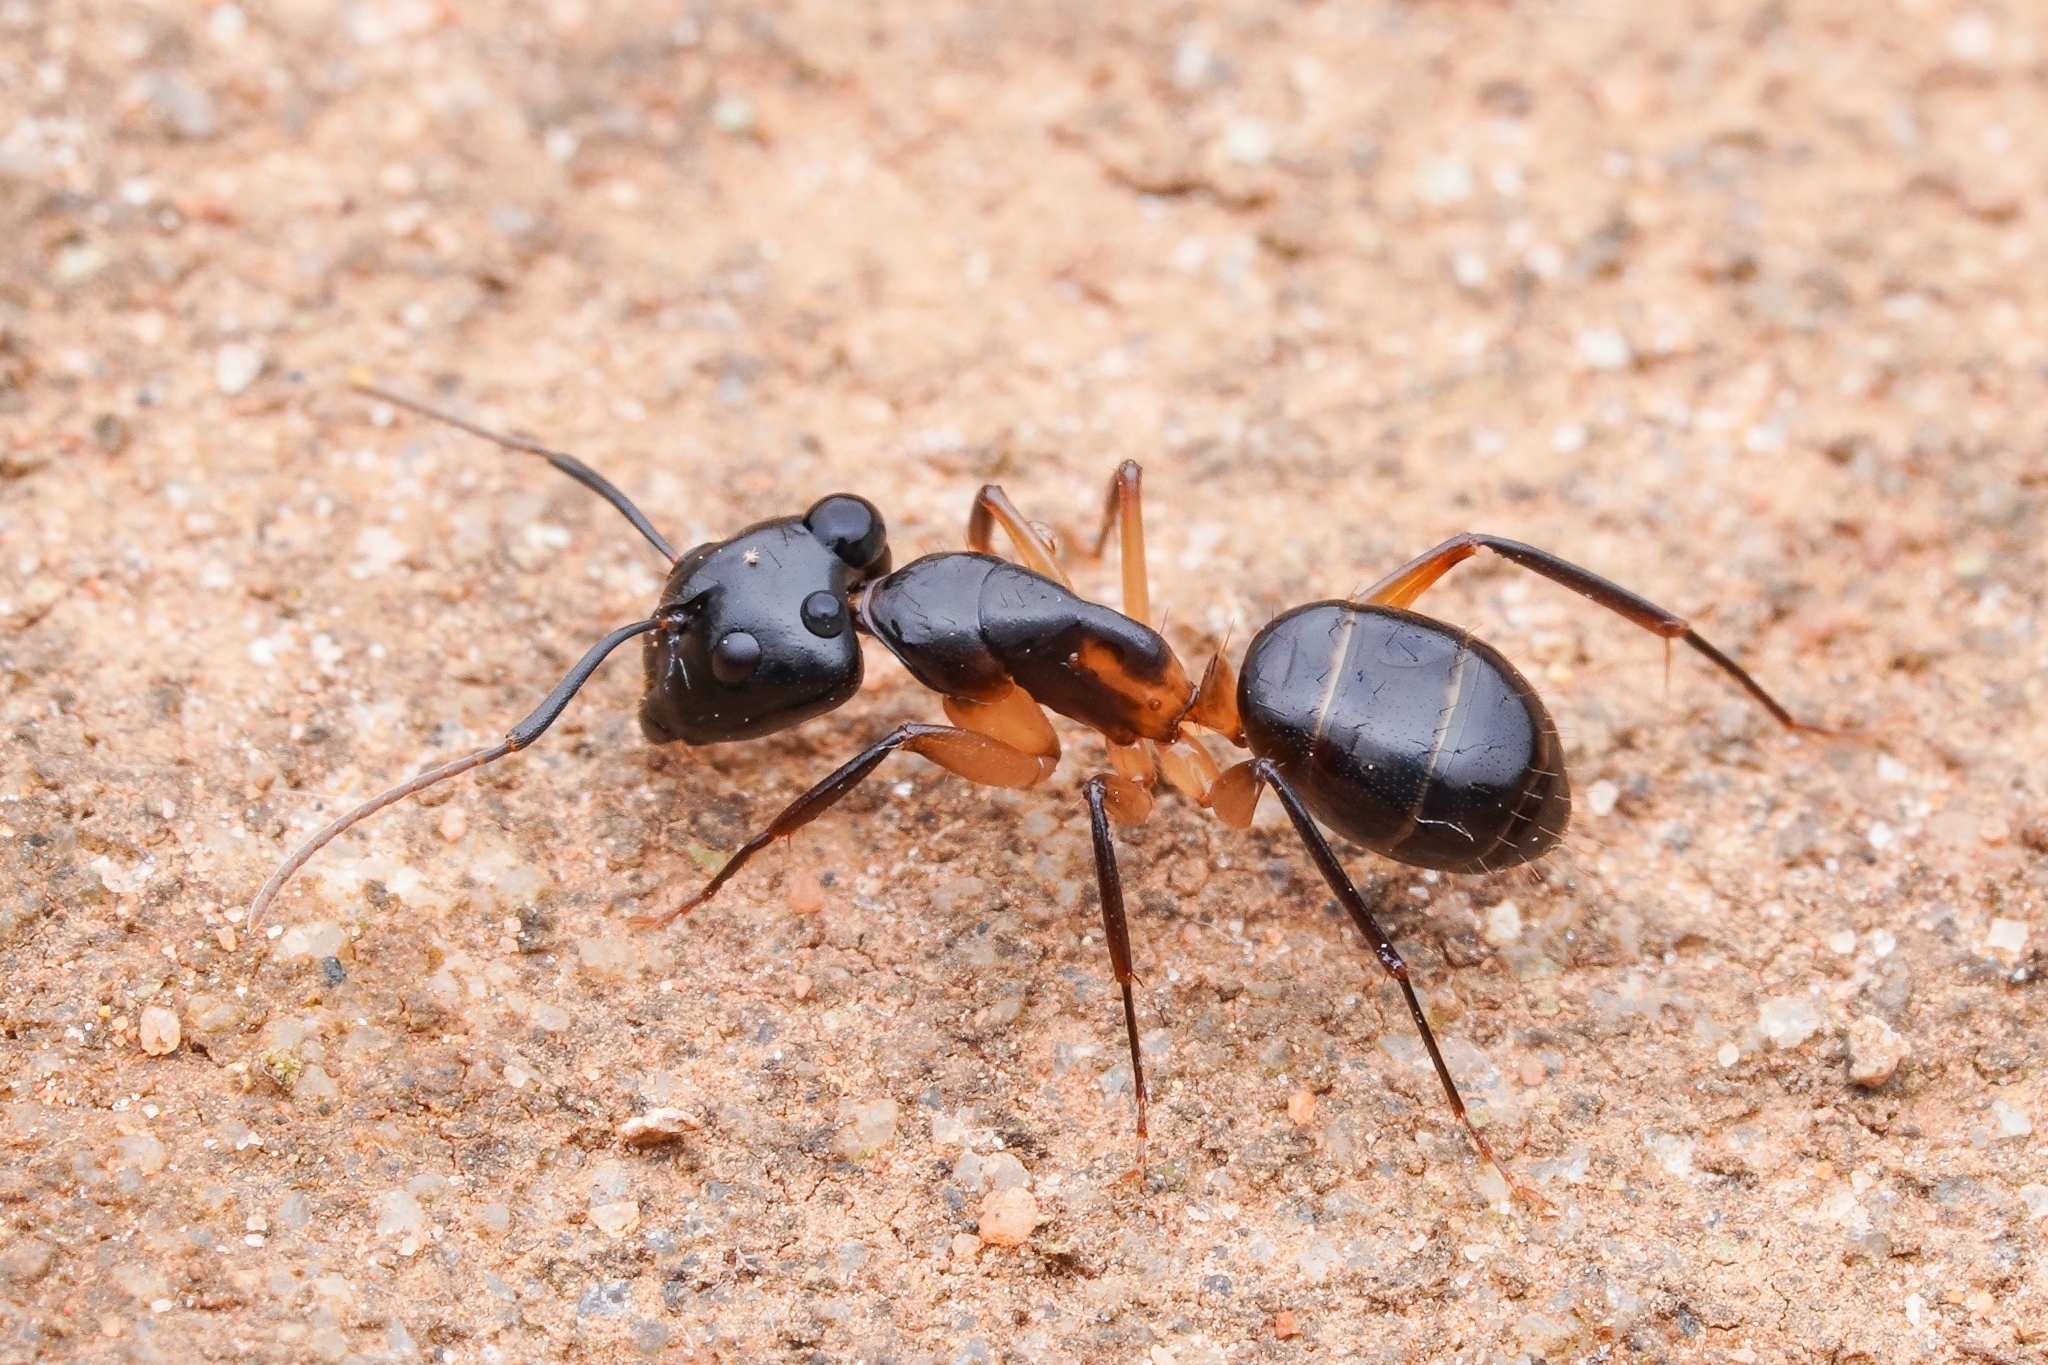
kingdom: Animalia
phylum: Arthropoda
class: Insecta
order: Hymenoptera
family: Formicidae
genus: Camponotus
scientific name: Camponotus bianconii
